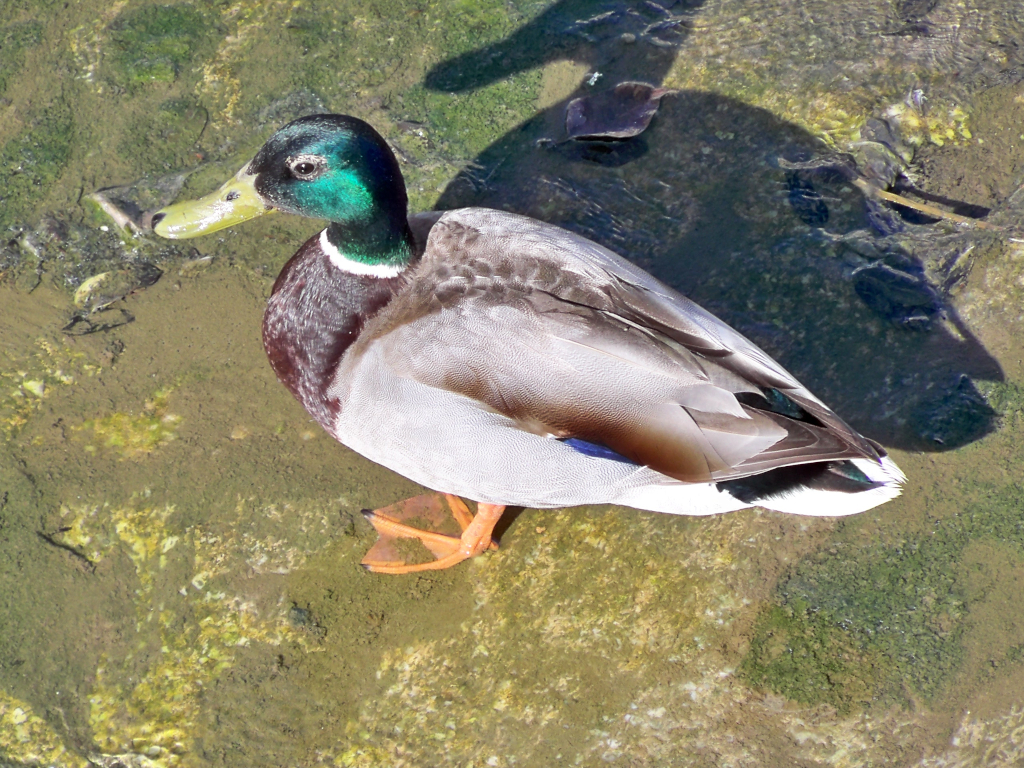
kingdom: Animalia
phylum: Chordata
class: Aves
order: Anseriformes
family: Anatidae
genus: Anas
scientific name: Anas platyrhynchos
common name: Mallard
